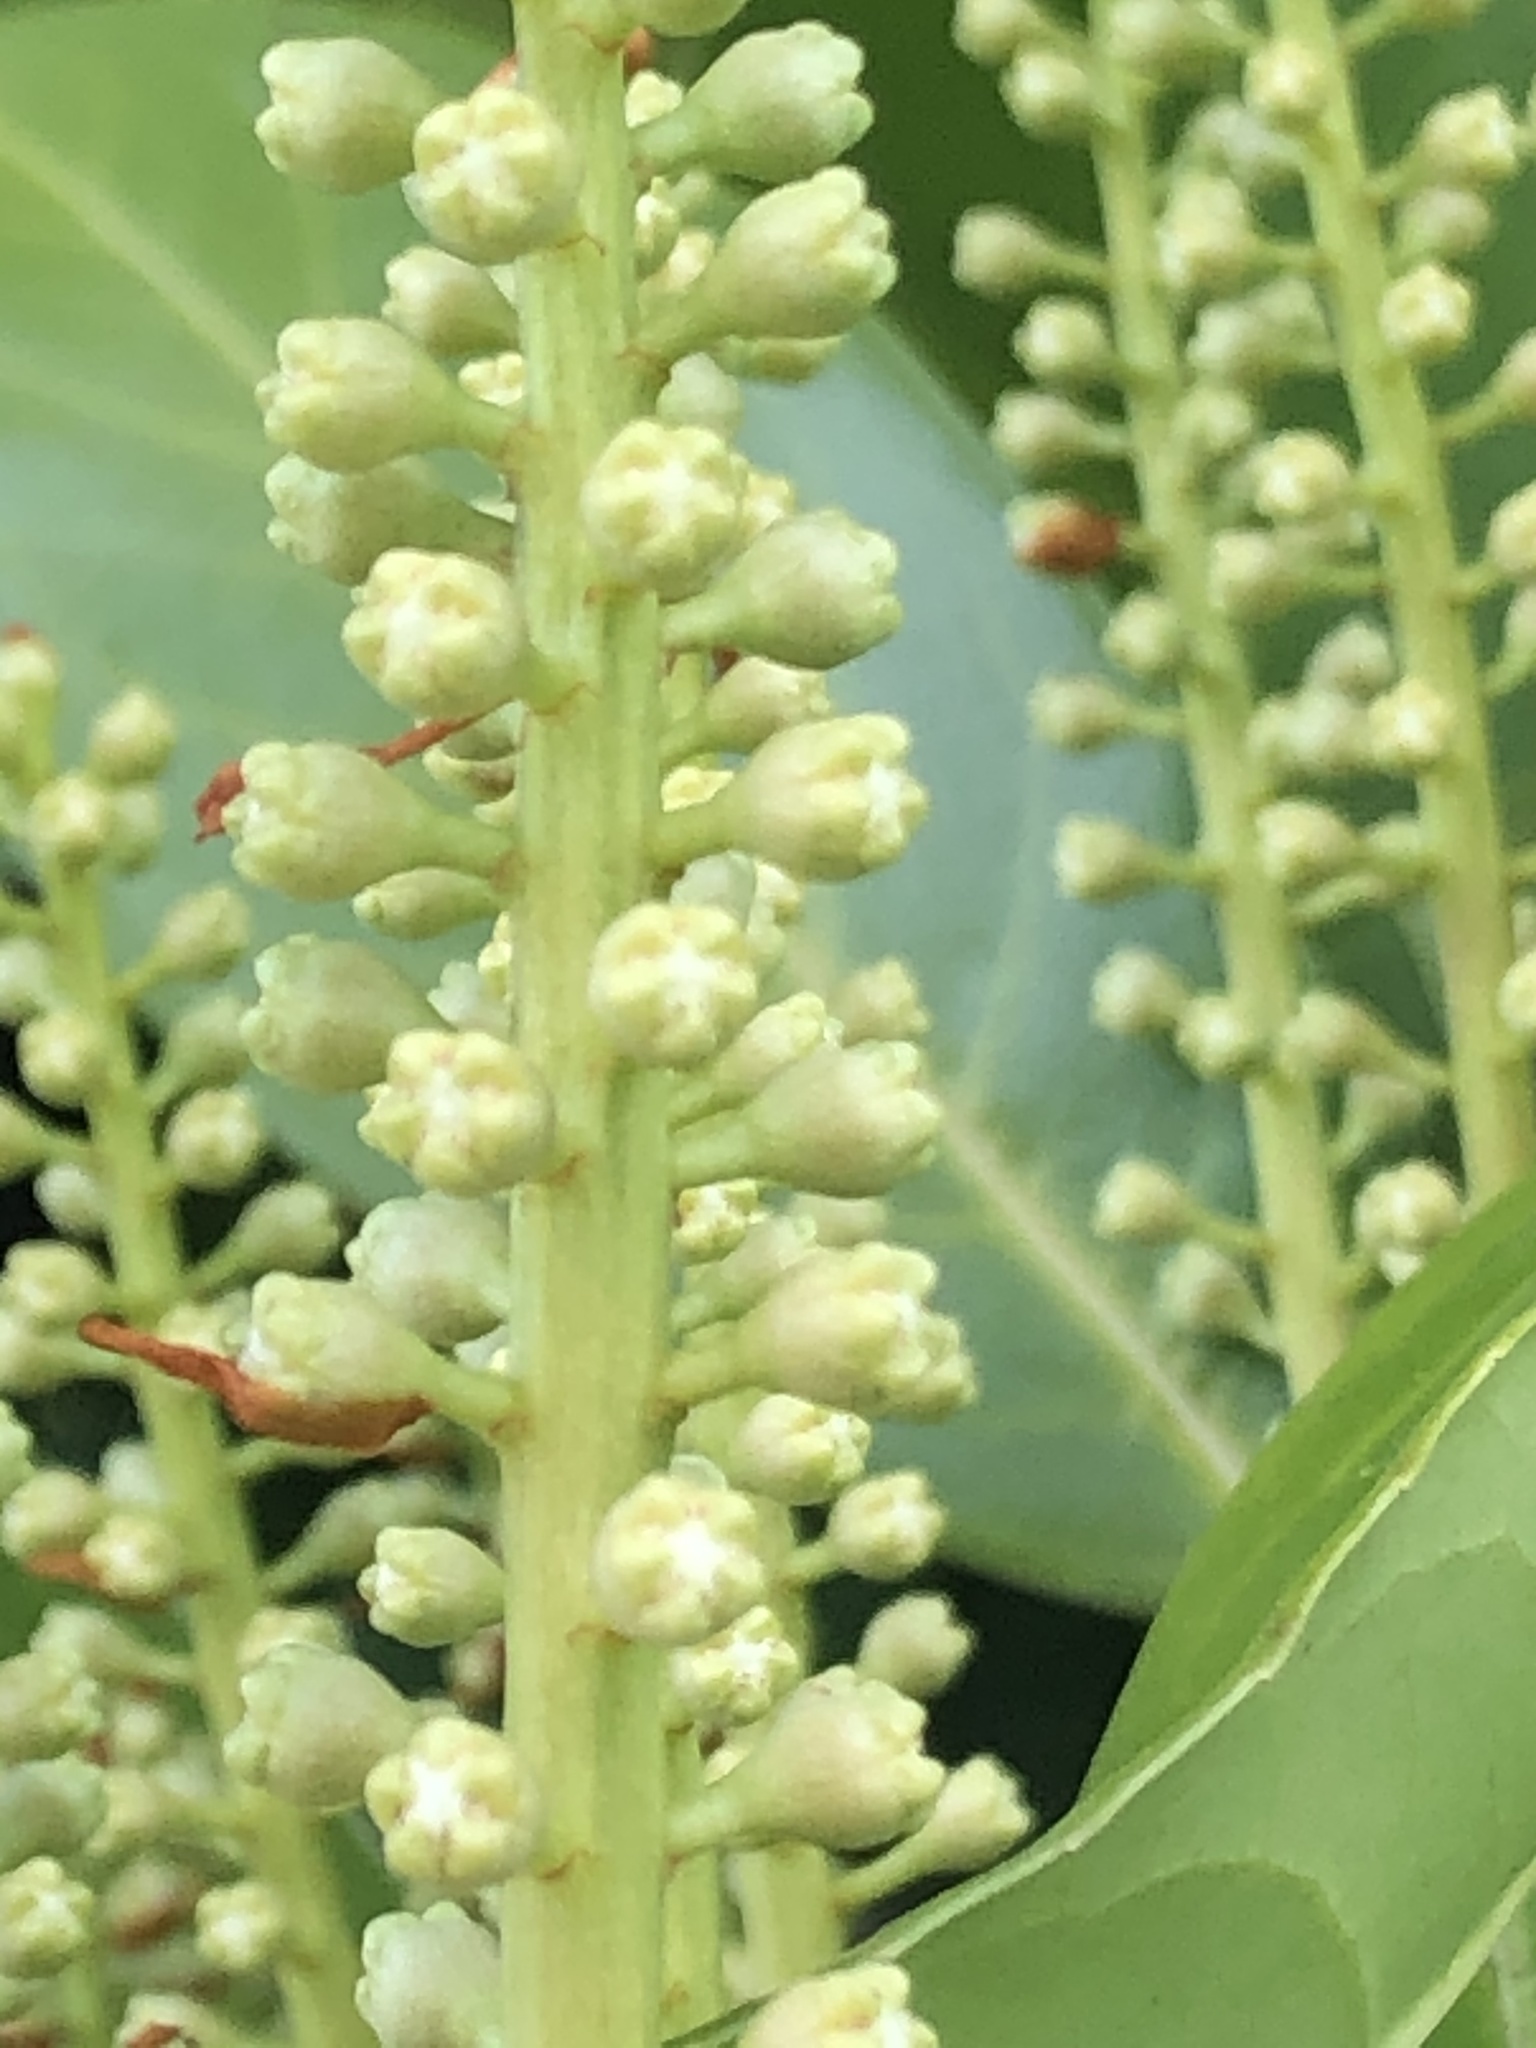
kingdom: Plantae
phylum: Tracheophyta
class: Magnoliopsida
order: Rosales
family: Rosaceae
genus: Prunus
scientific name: Prunus laurocerasus
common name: Cherry laurel
